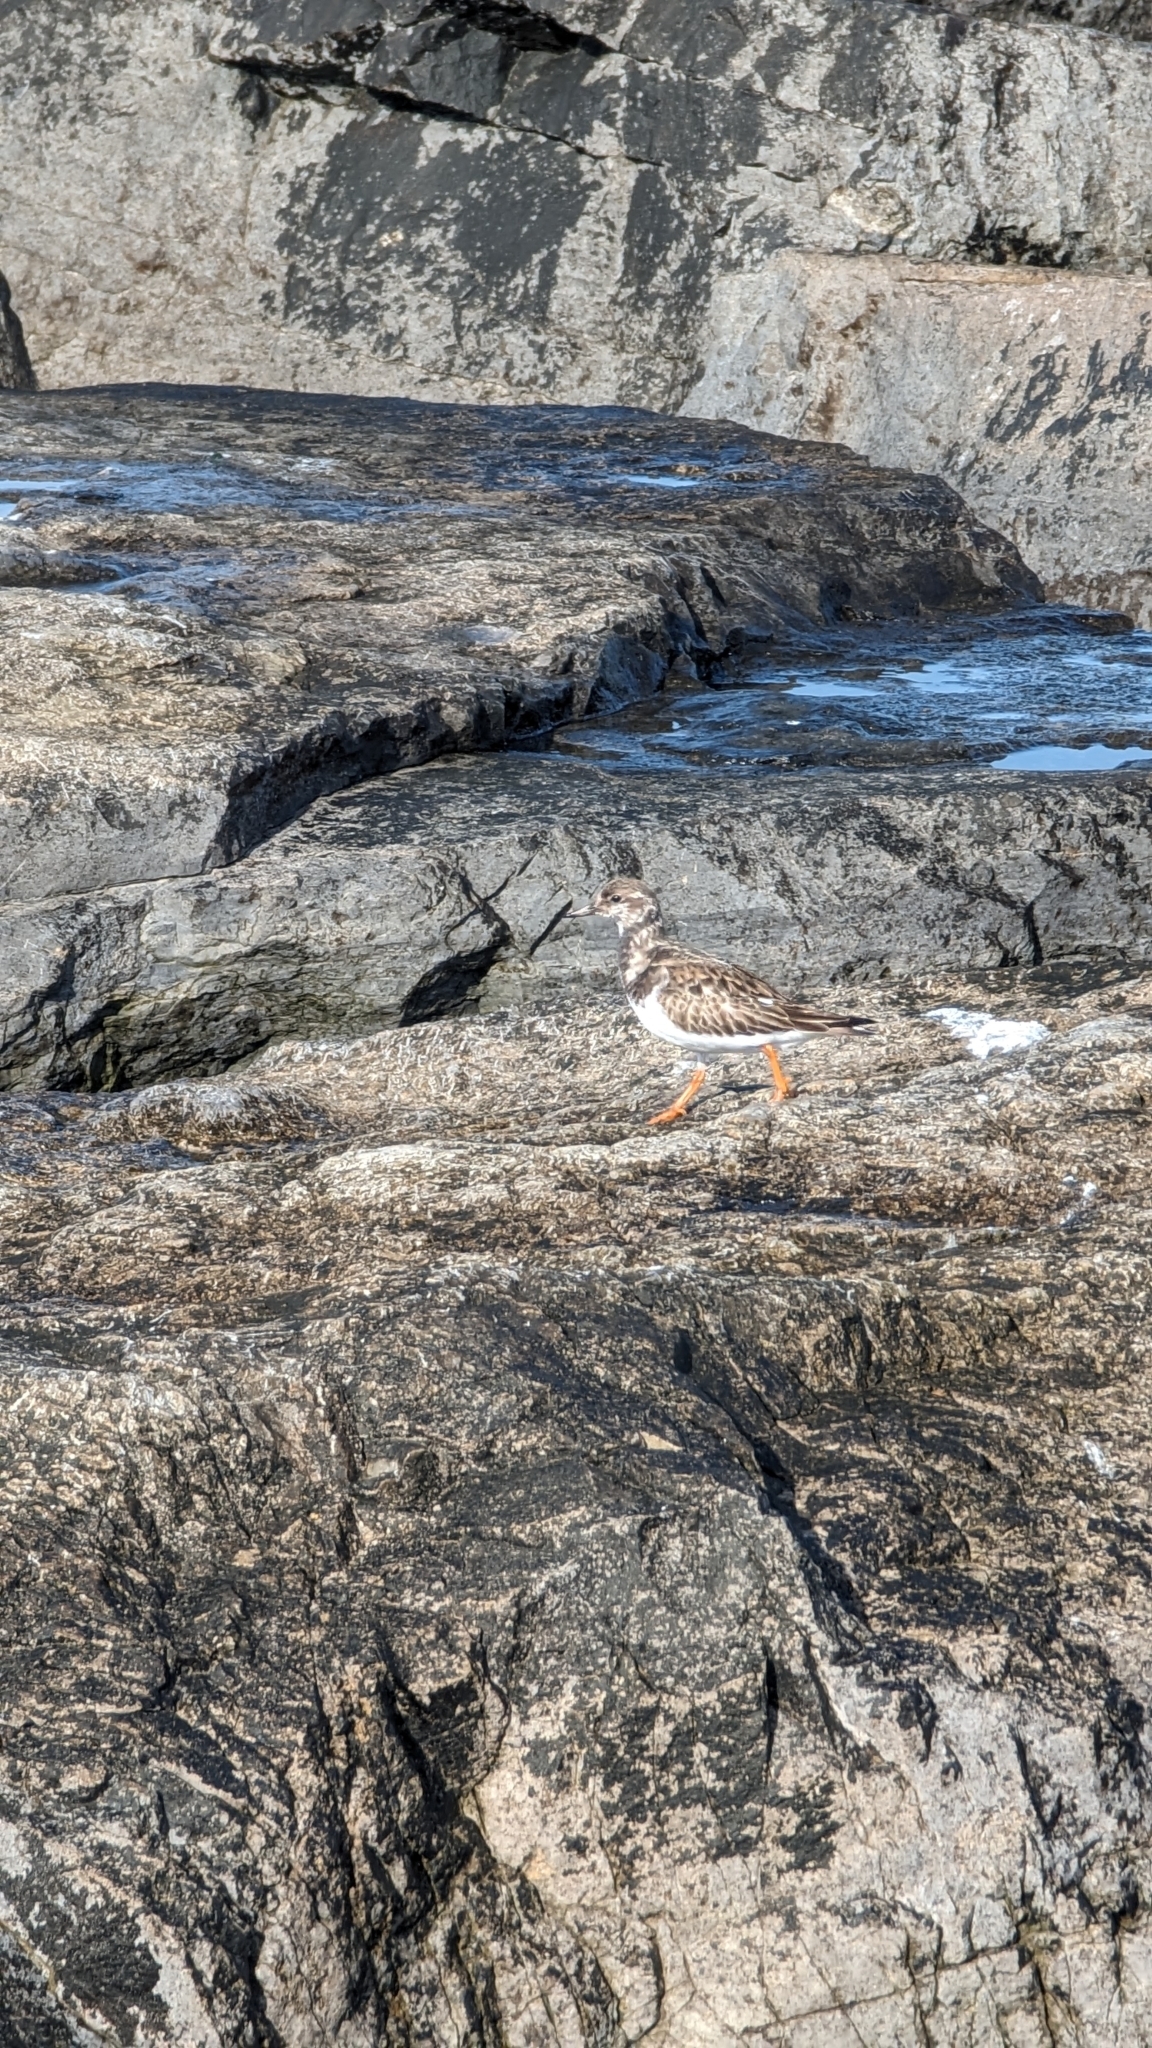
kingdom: Animalia
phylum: Chordata
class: Aves
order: Charadriiformes
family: Scolopacidae
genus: Arenaria
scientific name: Arenaria interpres
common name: Ruddy turnstone
